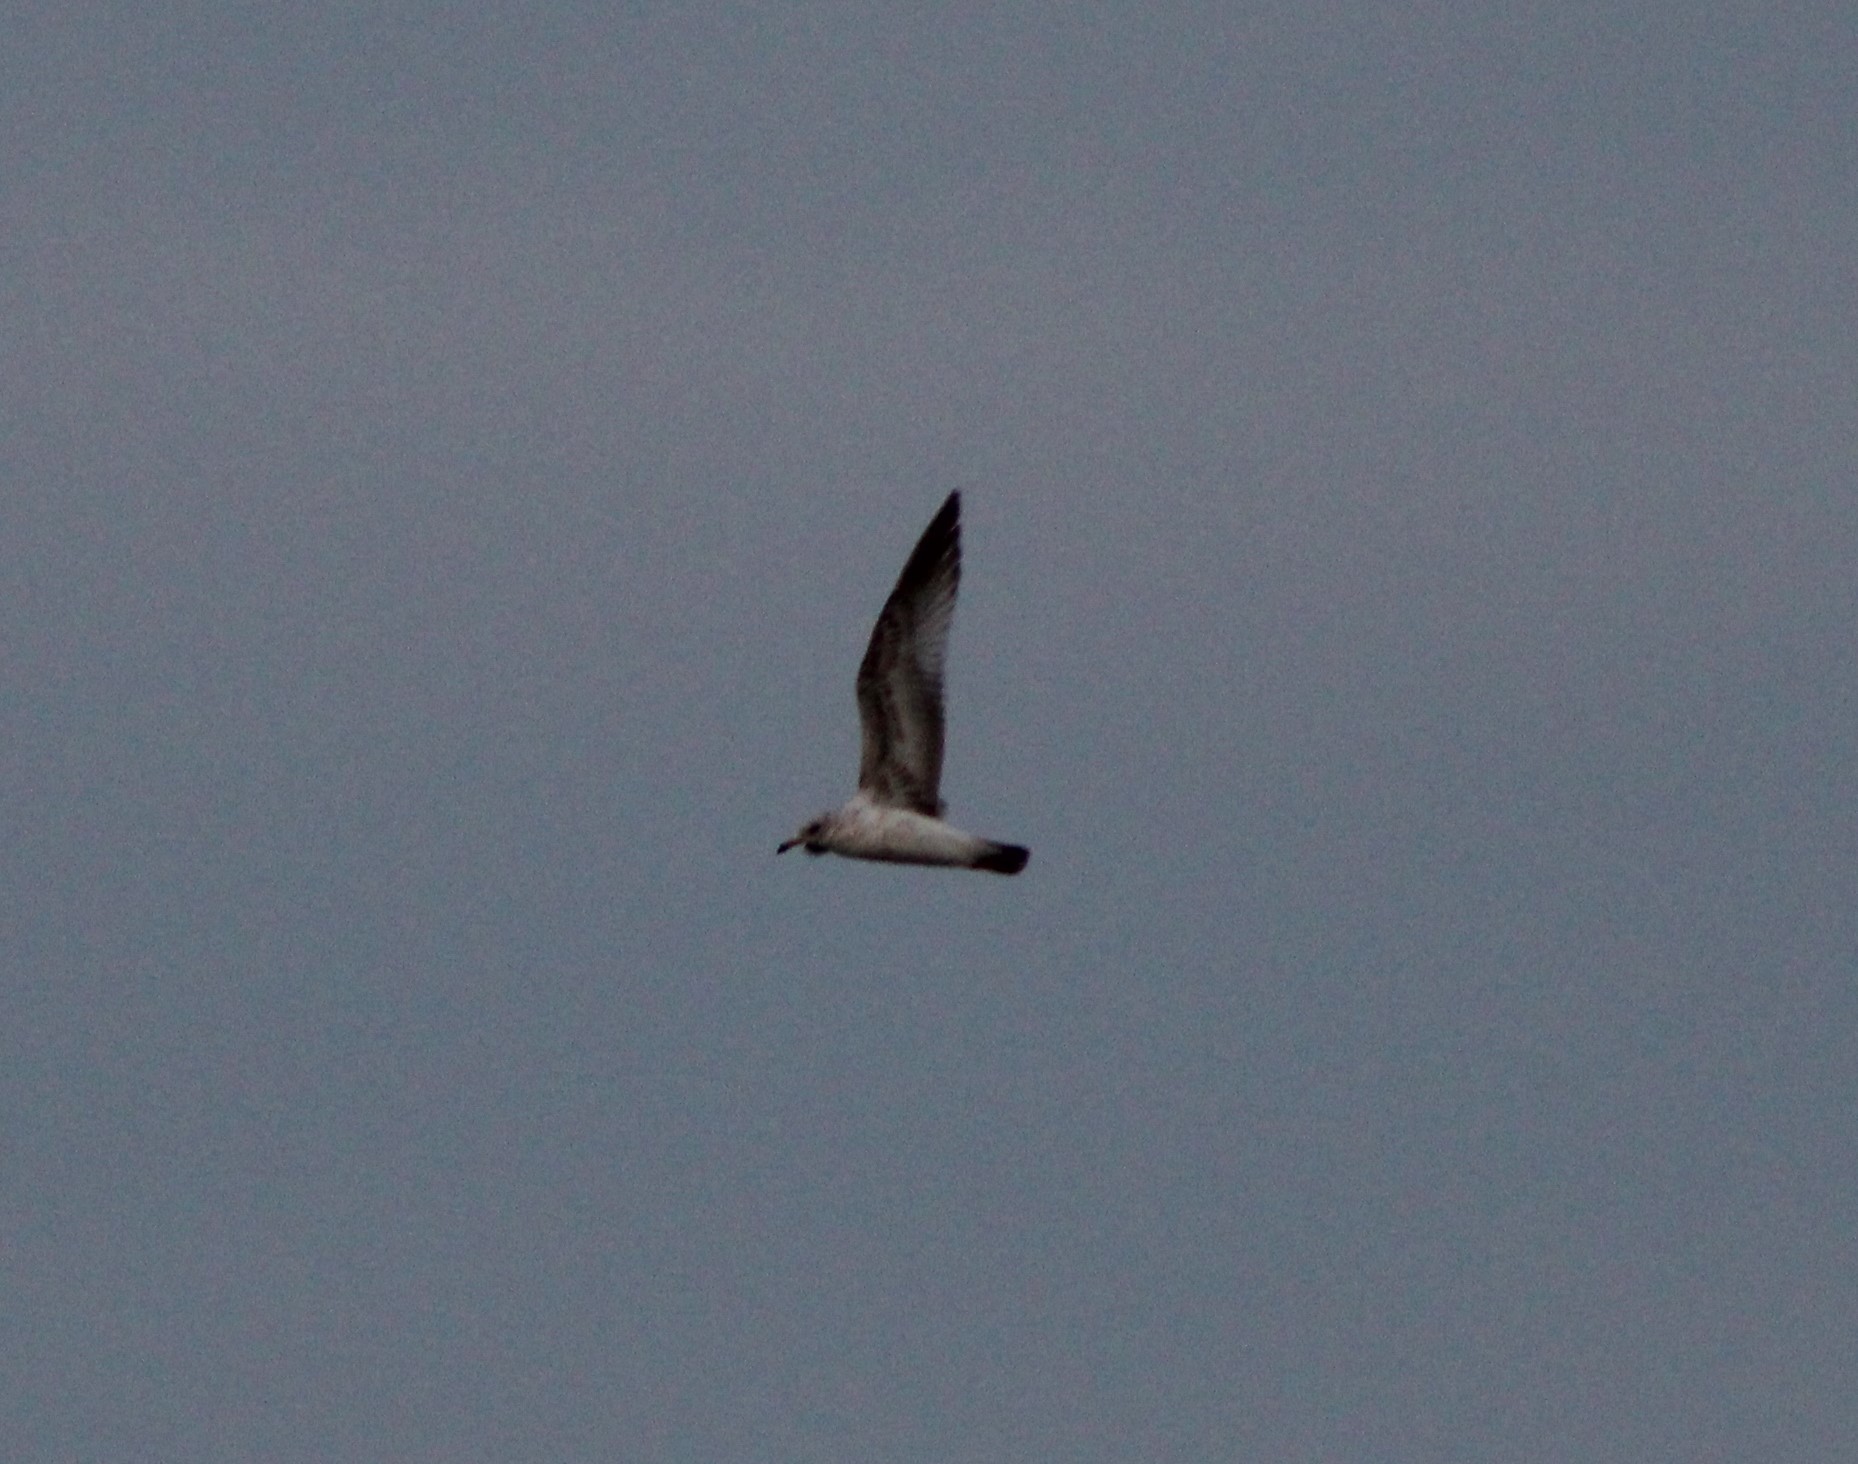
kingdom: Animalia
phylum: Chordata
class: Aves
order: Charadriiformes
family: Laridae
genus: Larus
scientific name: Larus delawarensis
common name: Ring-billed gull
